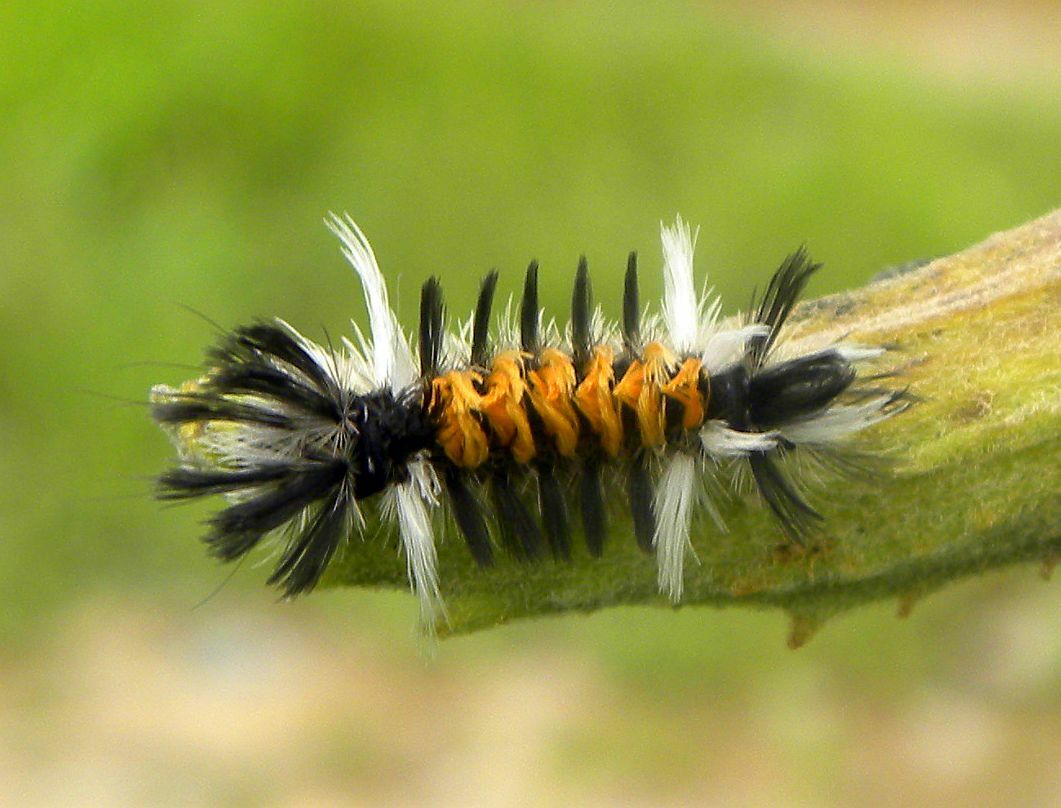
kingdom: Animalia
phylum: Arthropoda
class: Insecta
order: Lepidoptera
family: Erebidae
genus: Euchaetes
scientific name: Euchaetes egle
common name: Milkweed tussock moth
